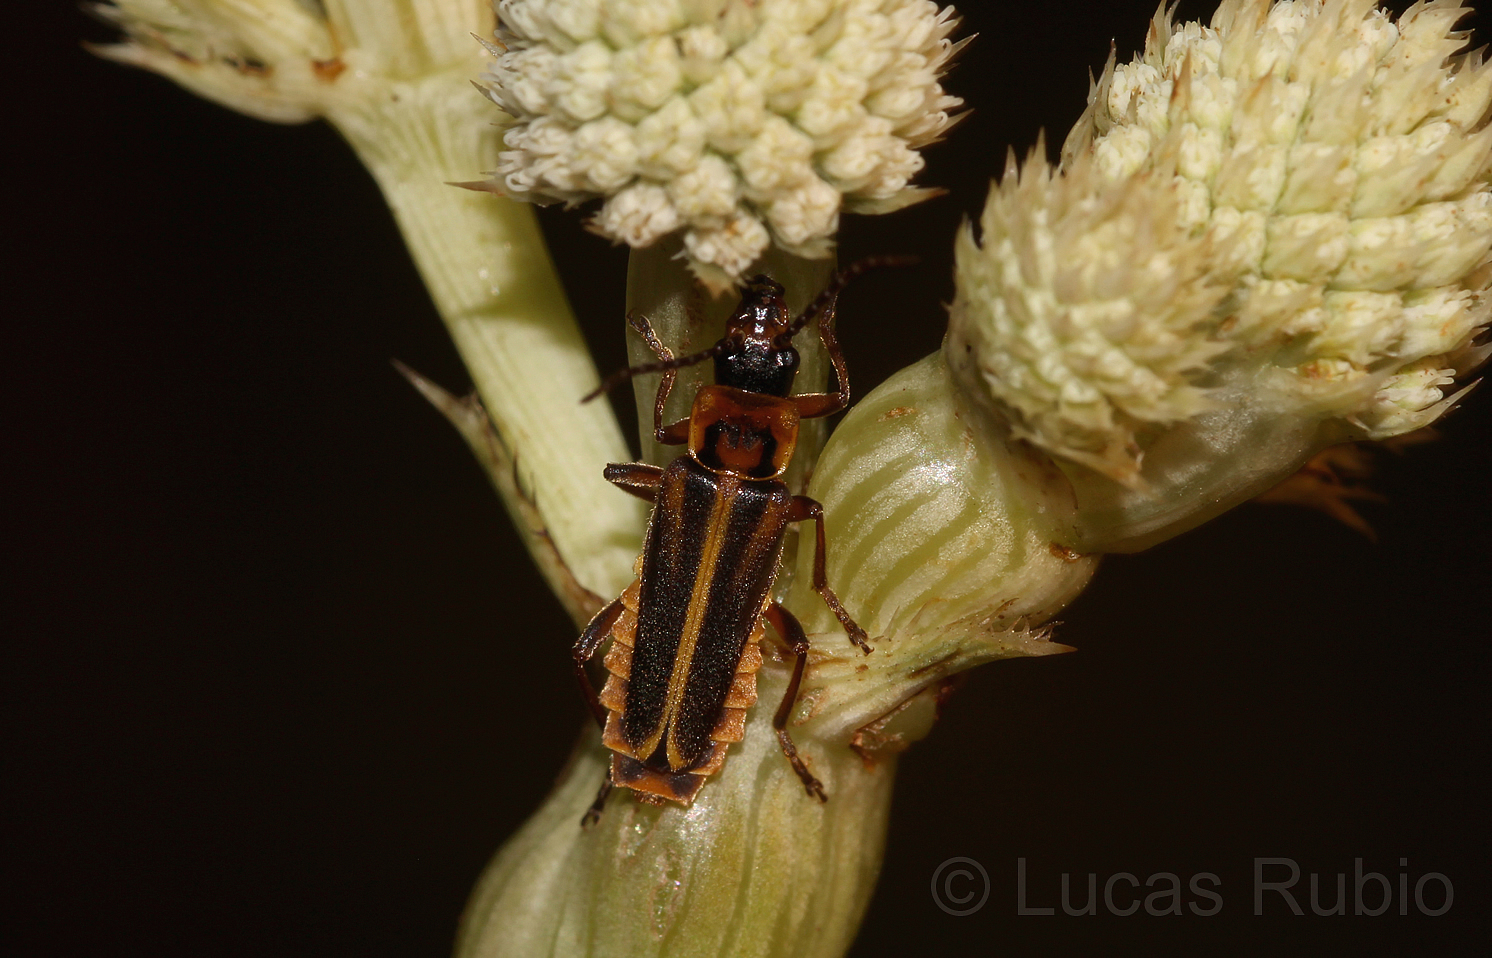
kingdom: Animalia
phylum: Arthropoda
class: Insecta
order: Coleoptera
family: Cantharidae
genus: Chauliognathus
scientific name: Chauliognathus
